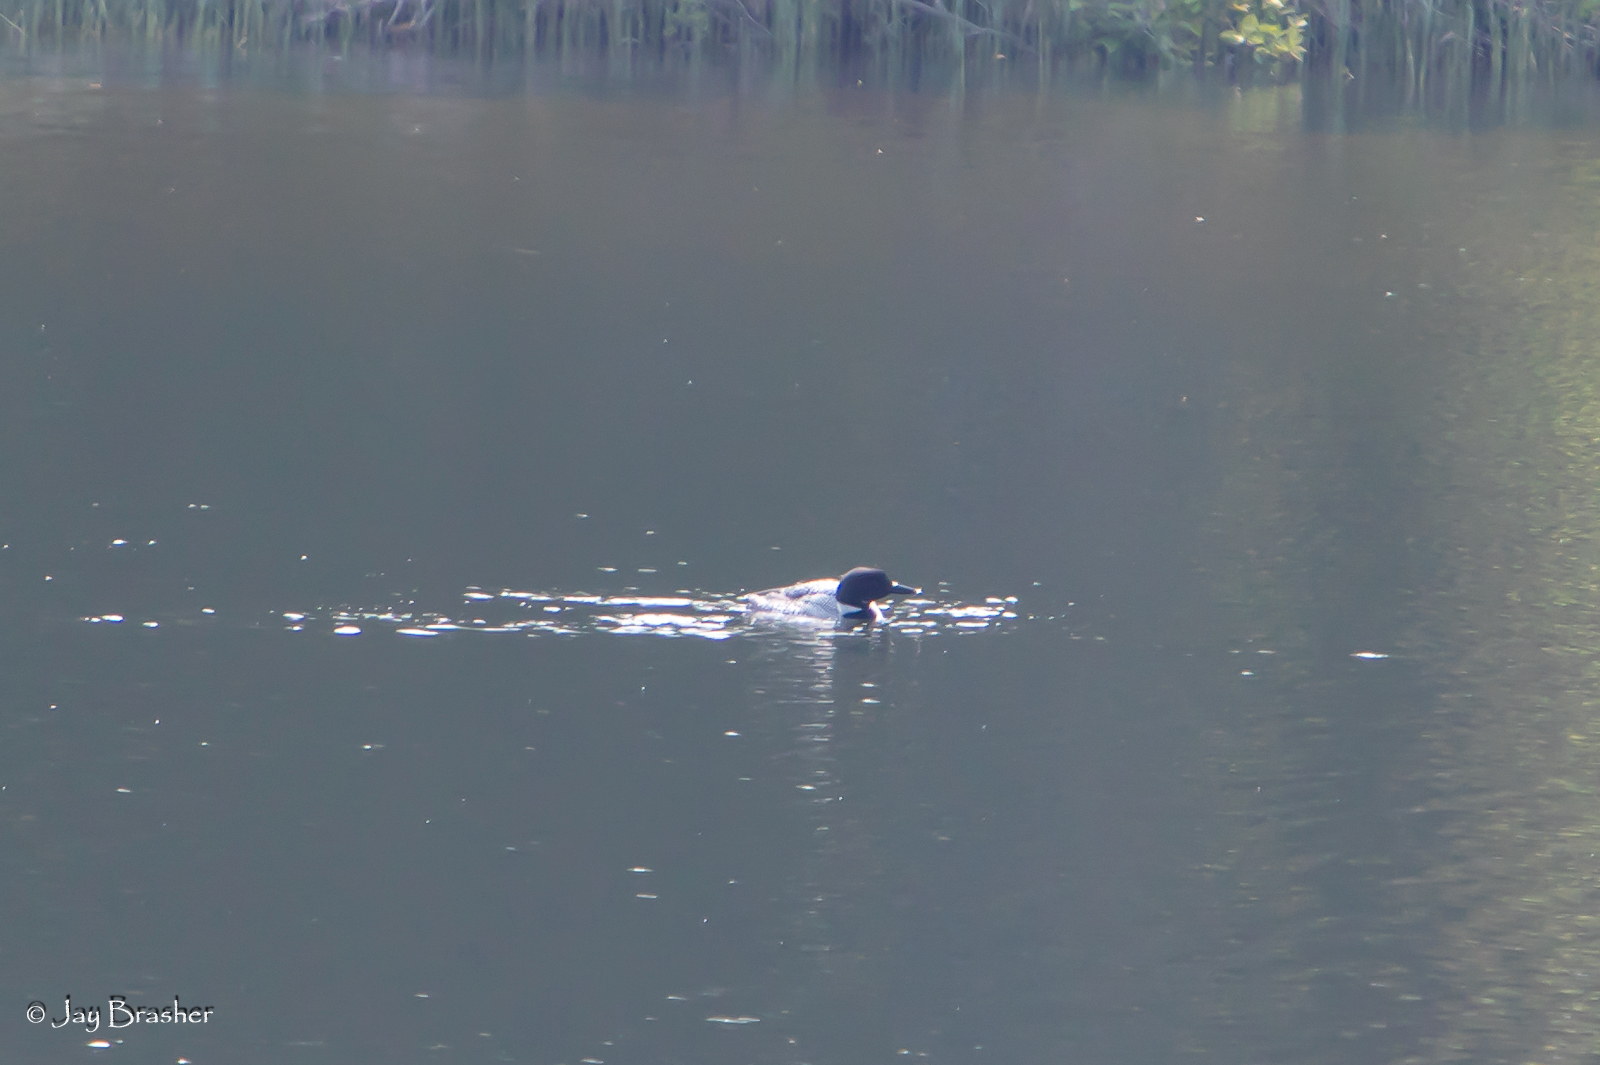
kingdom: Animalia
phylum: Chordata
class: Aves
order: Gaviiformes
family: Gaviidae
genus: Gavia
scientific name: Gavia immer
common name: Common loon
